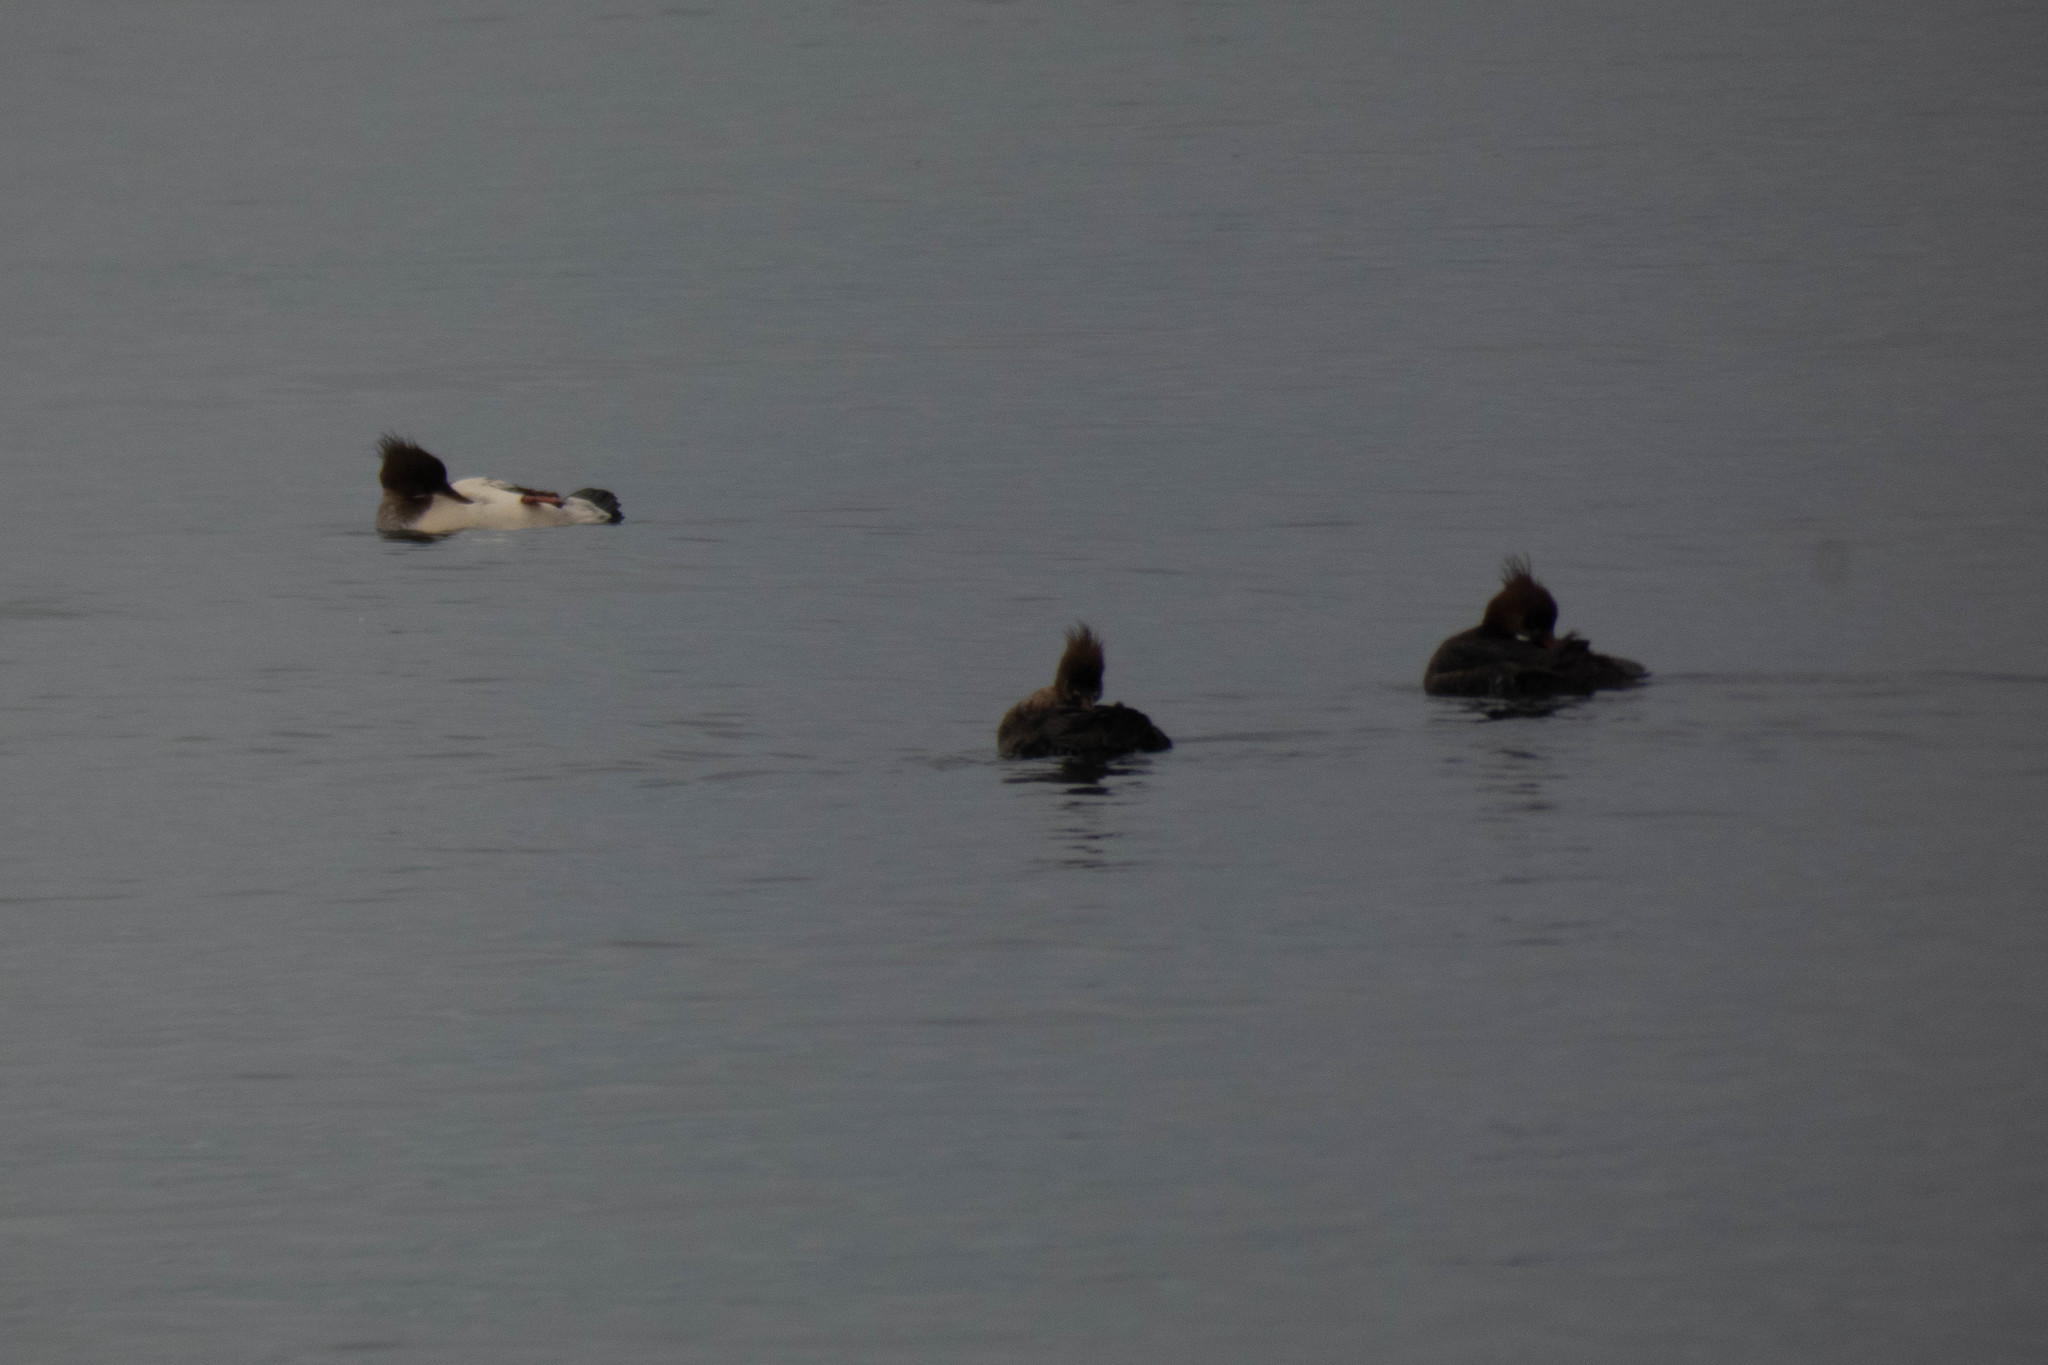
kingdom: Animalia
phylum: Chordata
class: Aves
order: Anseriformes
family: Anatidae
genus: Mergus
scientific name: Mergus serrator
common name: Red-breasted merganser
